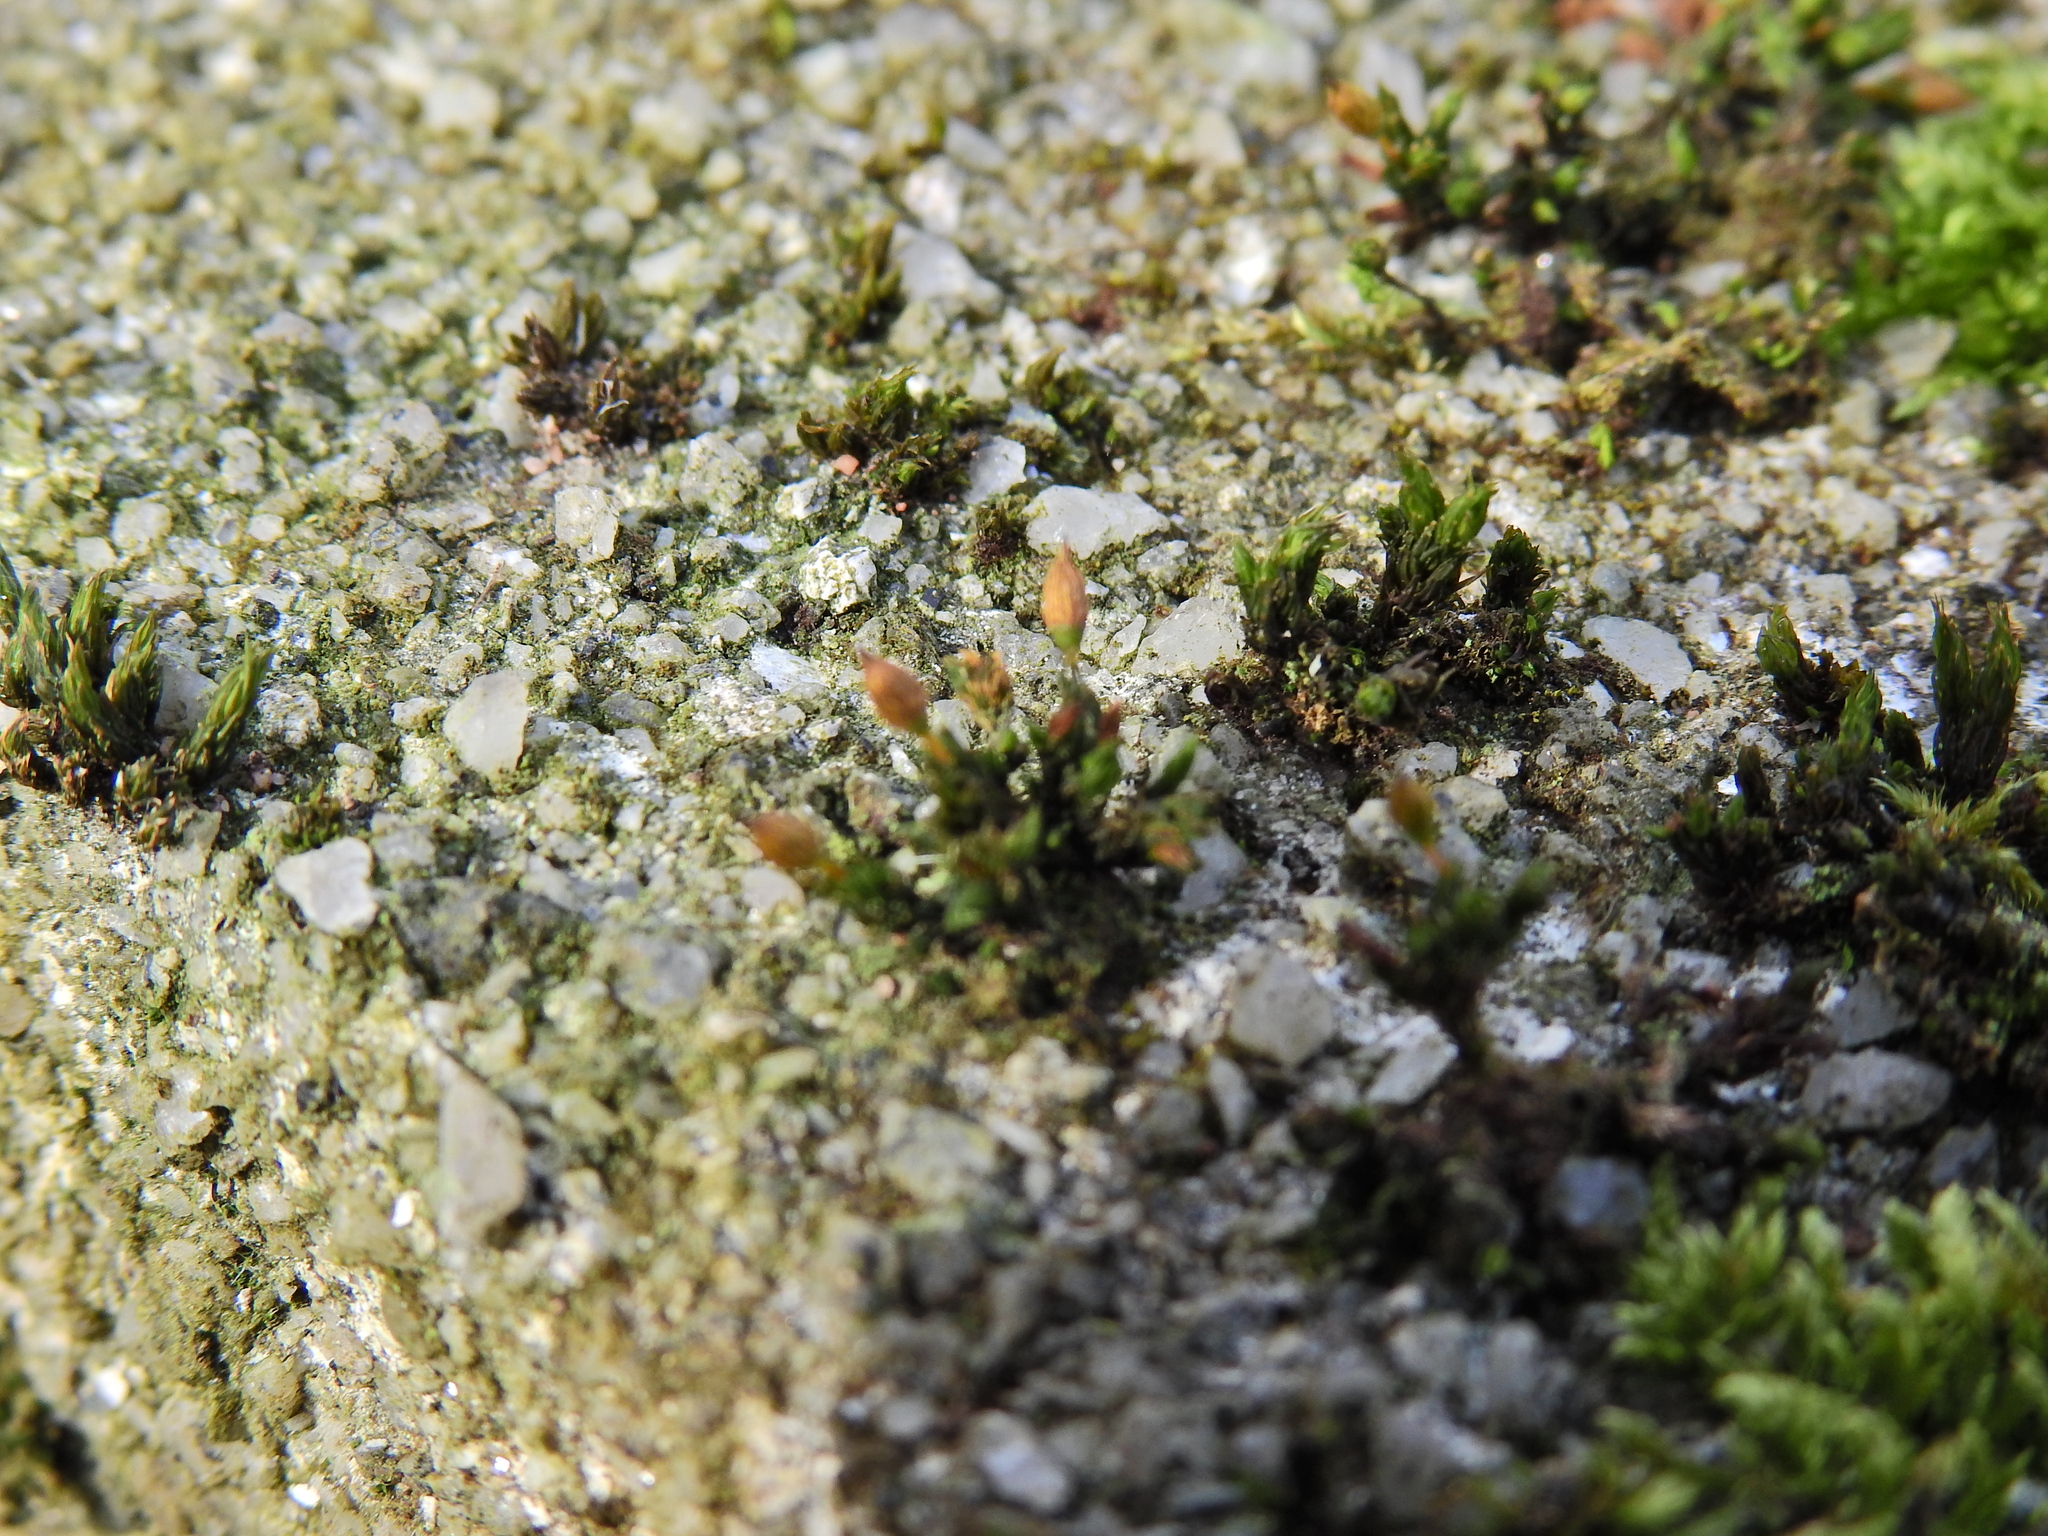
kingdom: Plantae
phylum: Bryophyta
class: Bryopsida
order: Orthotrichales
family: Orthotrichaceae
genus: Orthotrichum
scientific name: Orthotrichum anomalum
